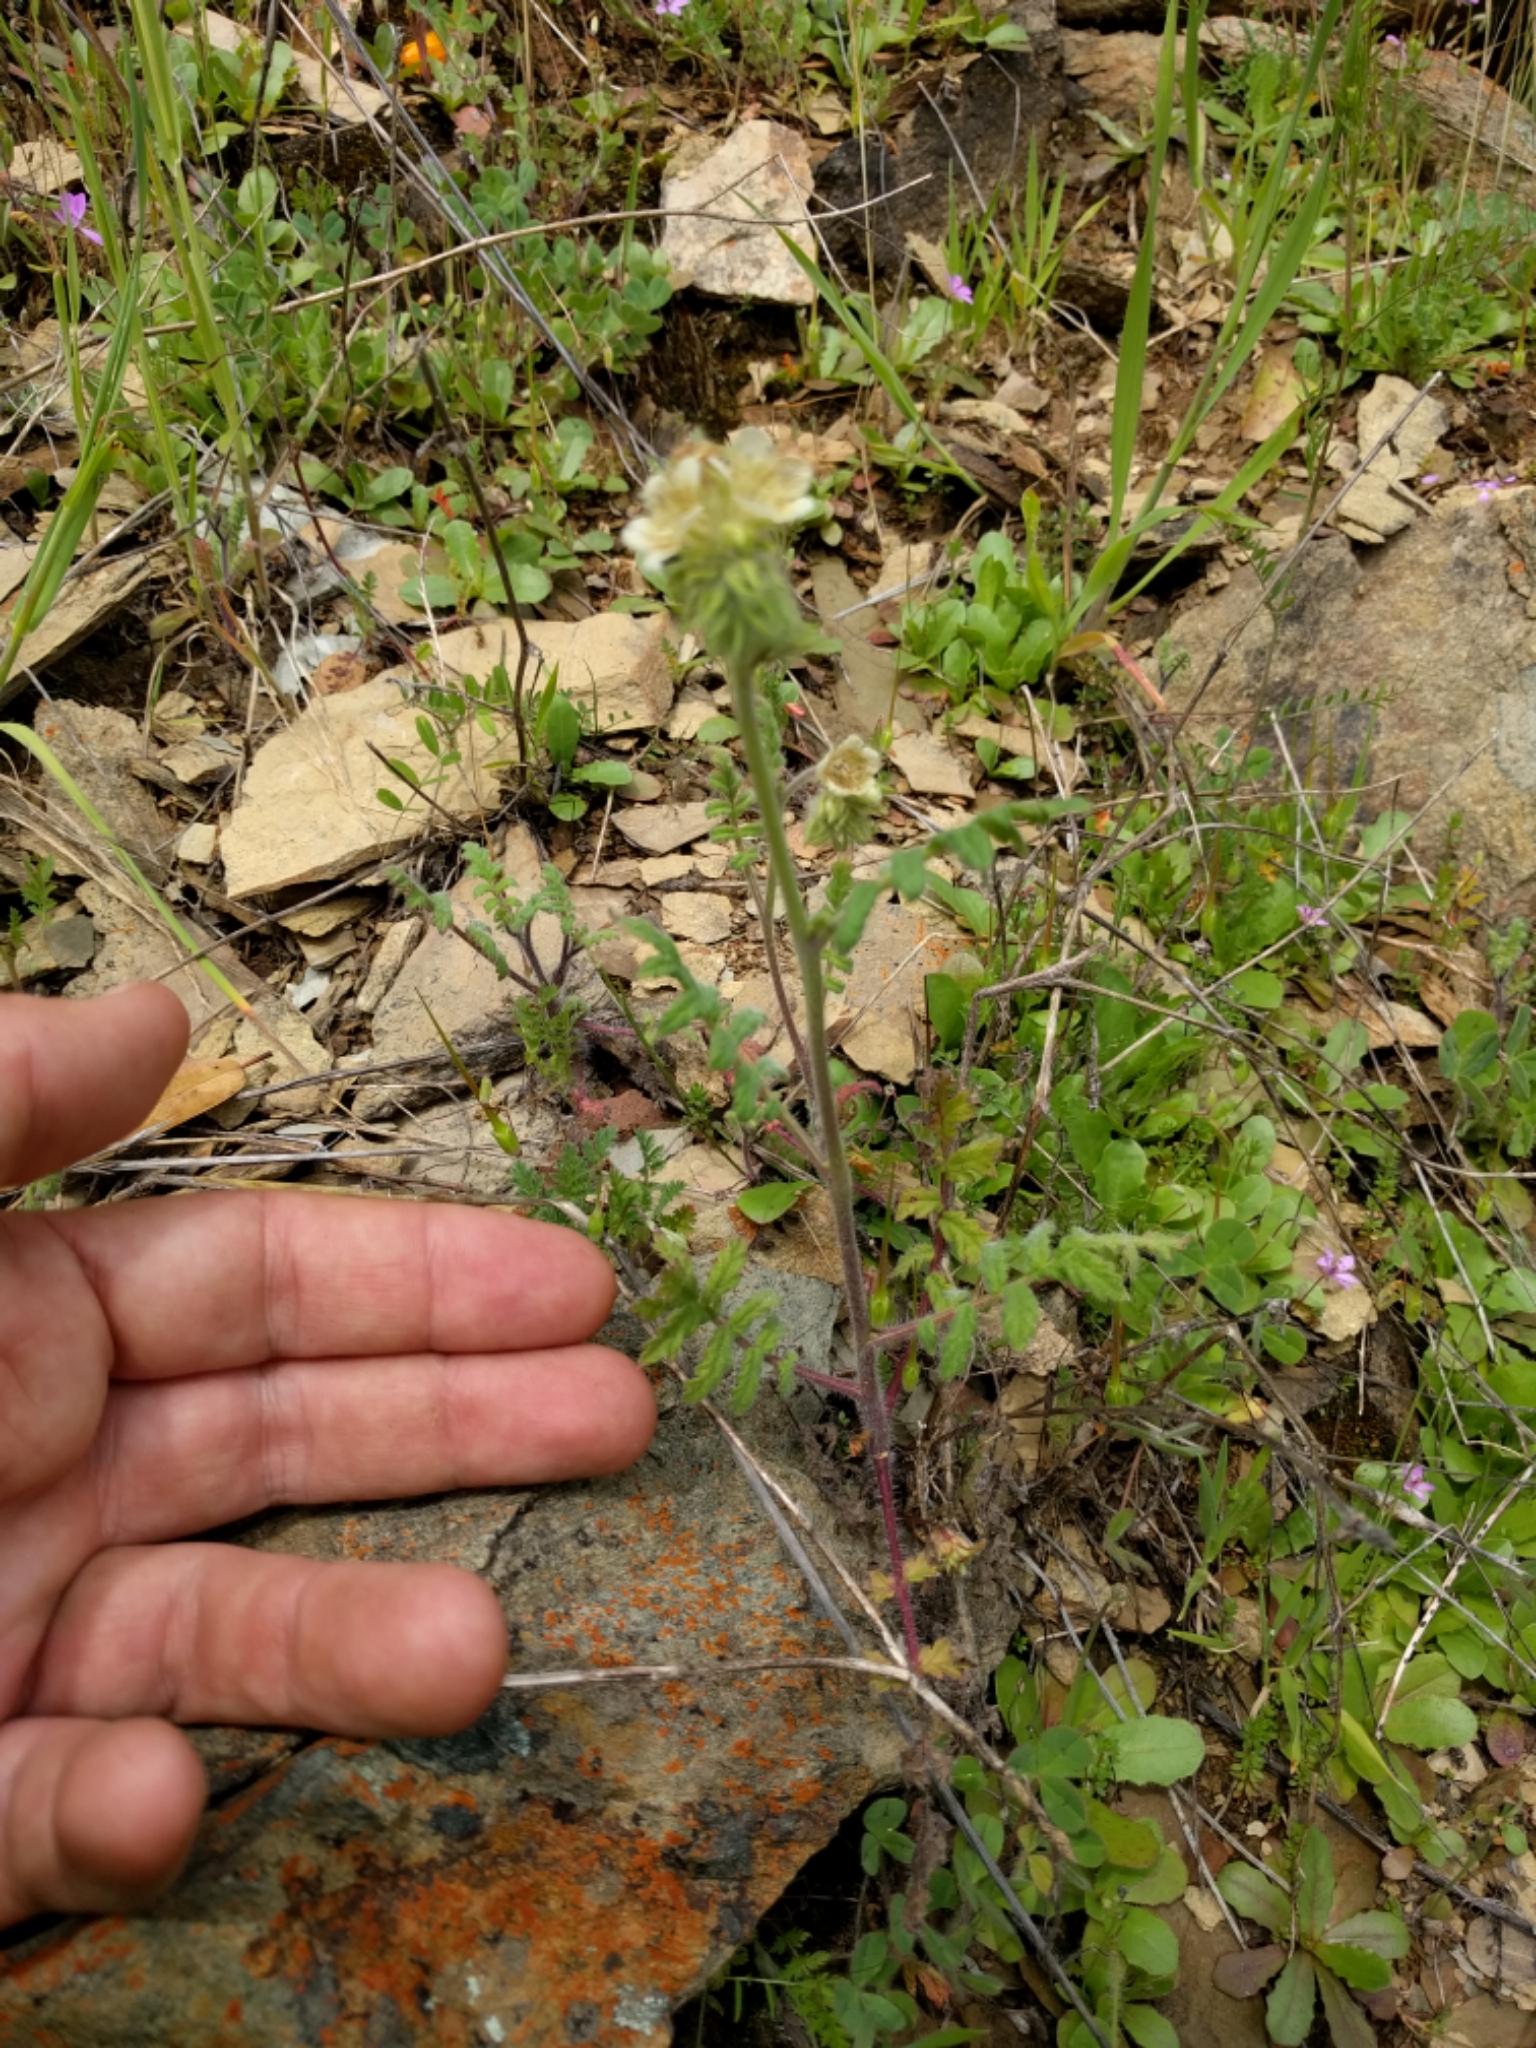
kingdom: Plantae
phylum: Tracheophyta
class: Magnoliopsida
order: Boraginales
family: Hydrophyllaceae
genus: Phacelia
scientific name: Phacelia cicutaria
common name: Caterpillar phacelia
